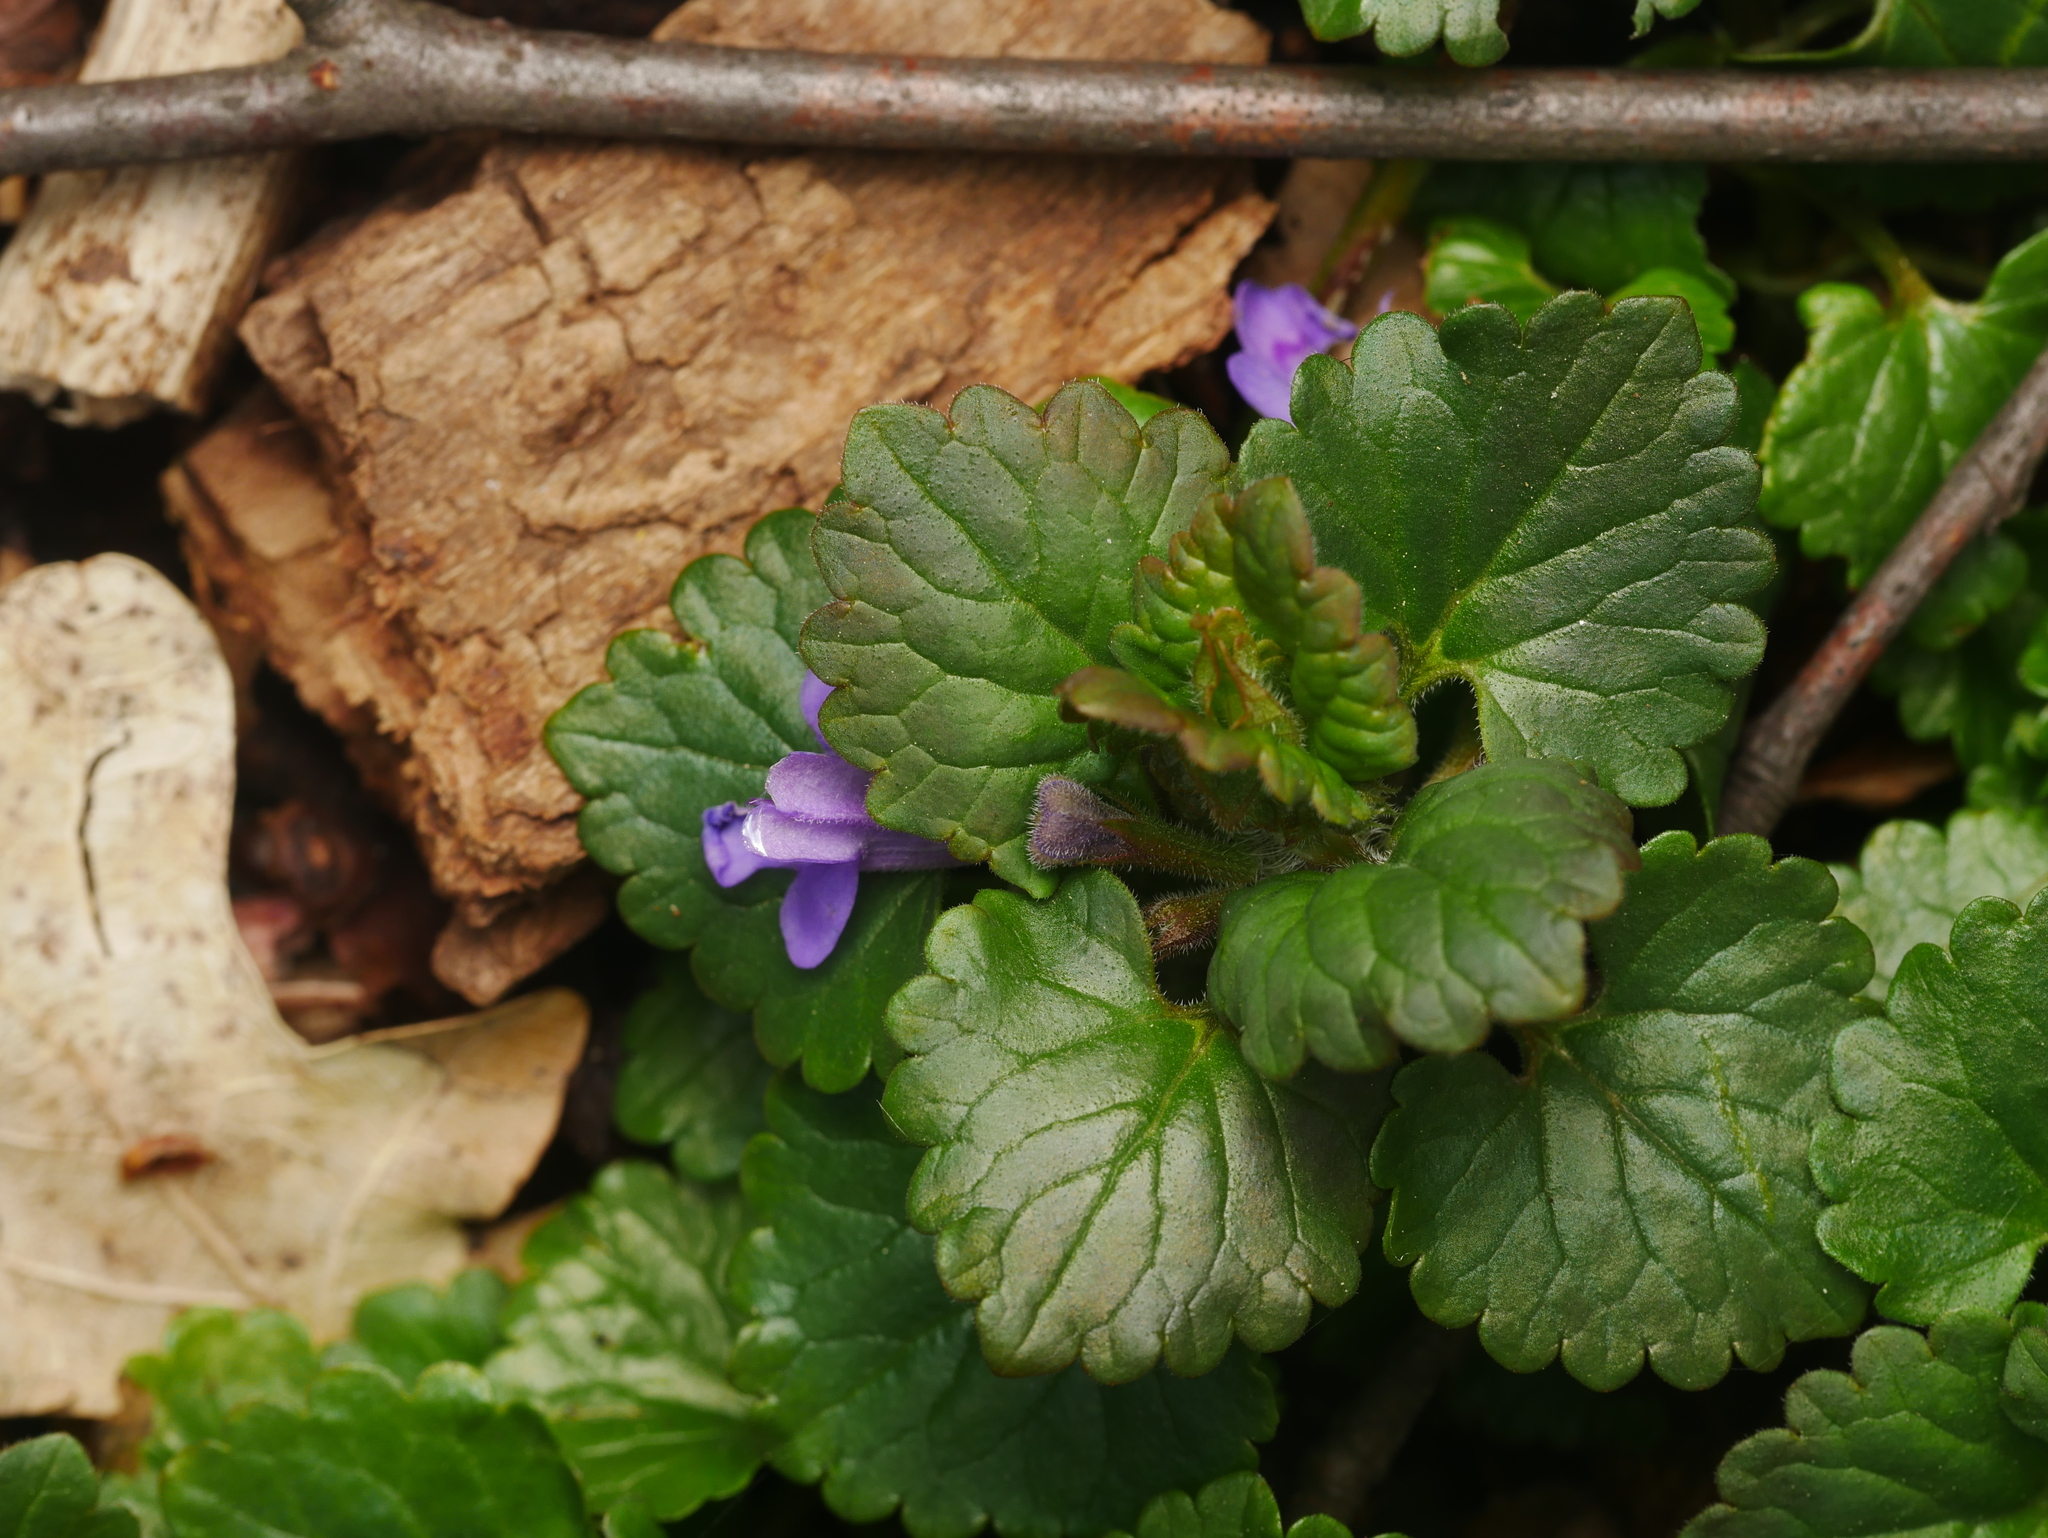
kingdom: Plantae
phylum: Tracheophyta
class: Magnoliopsida
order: Lamiales
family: Lamiaceae
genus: Glechoma
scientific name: Glechoma hederacea
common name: Ground ivy
